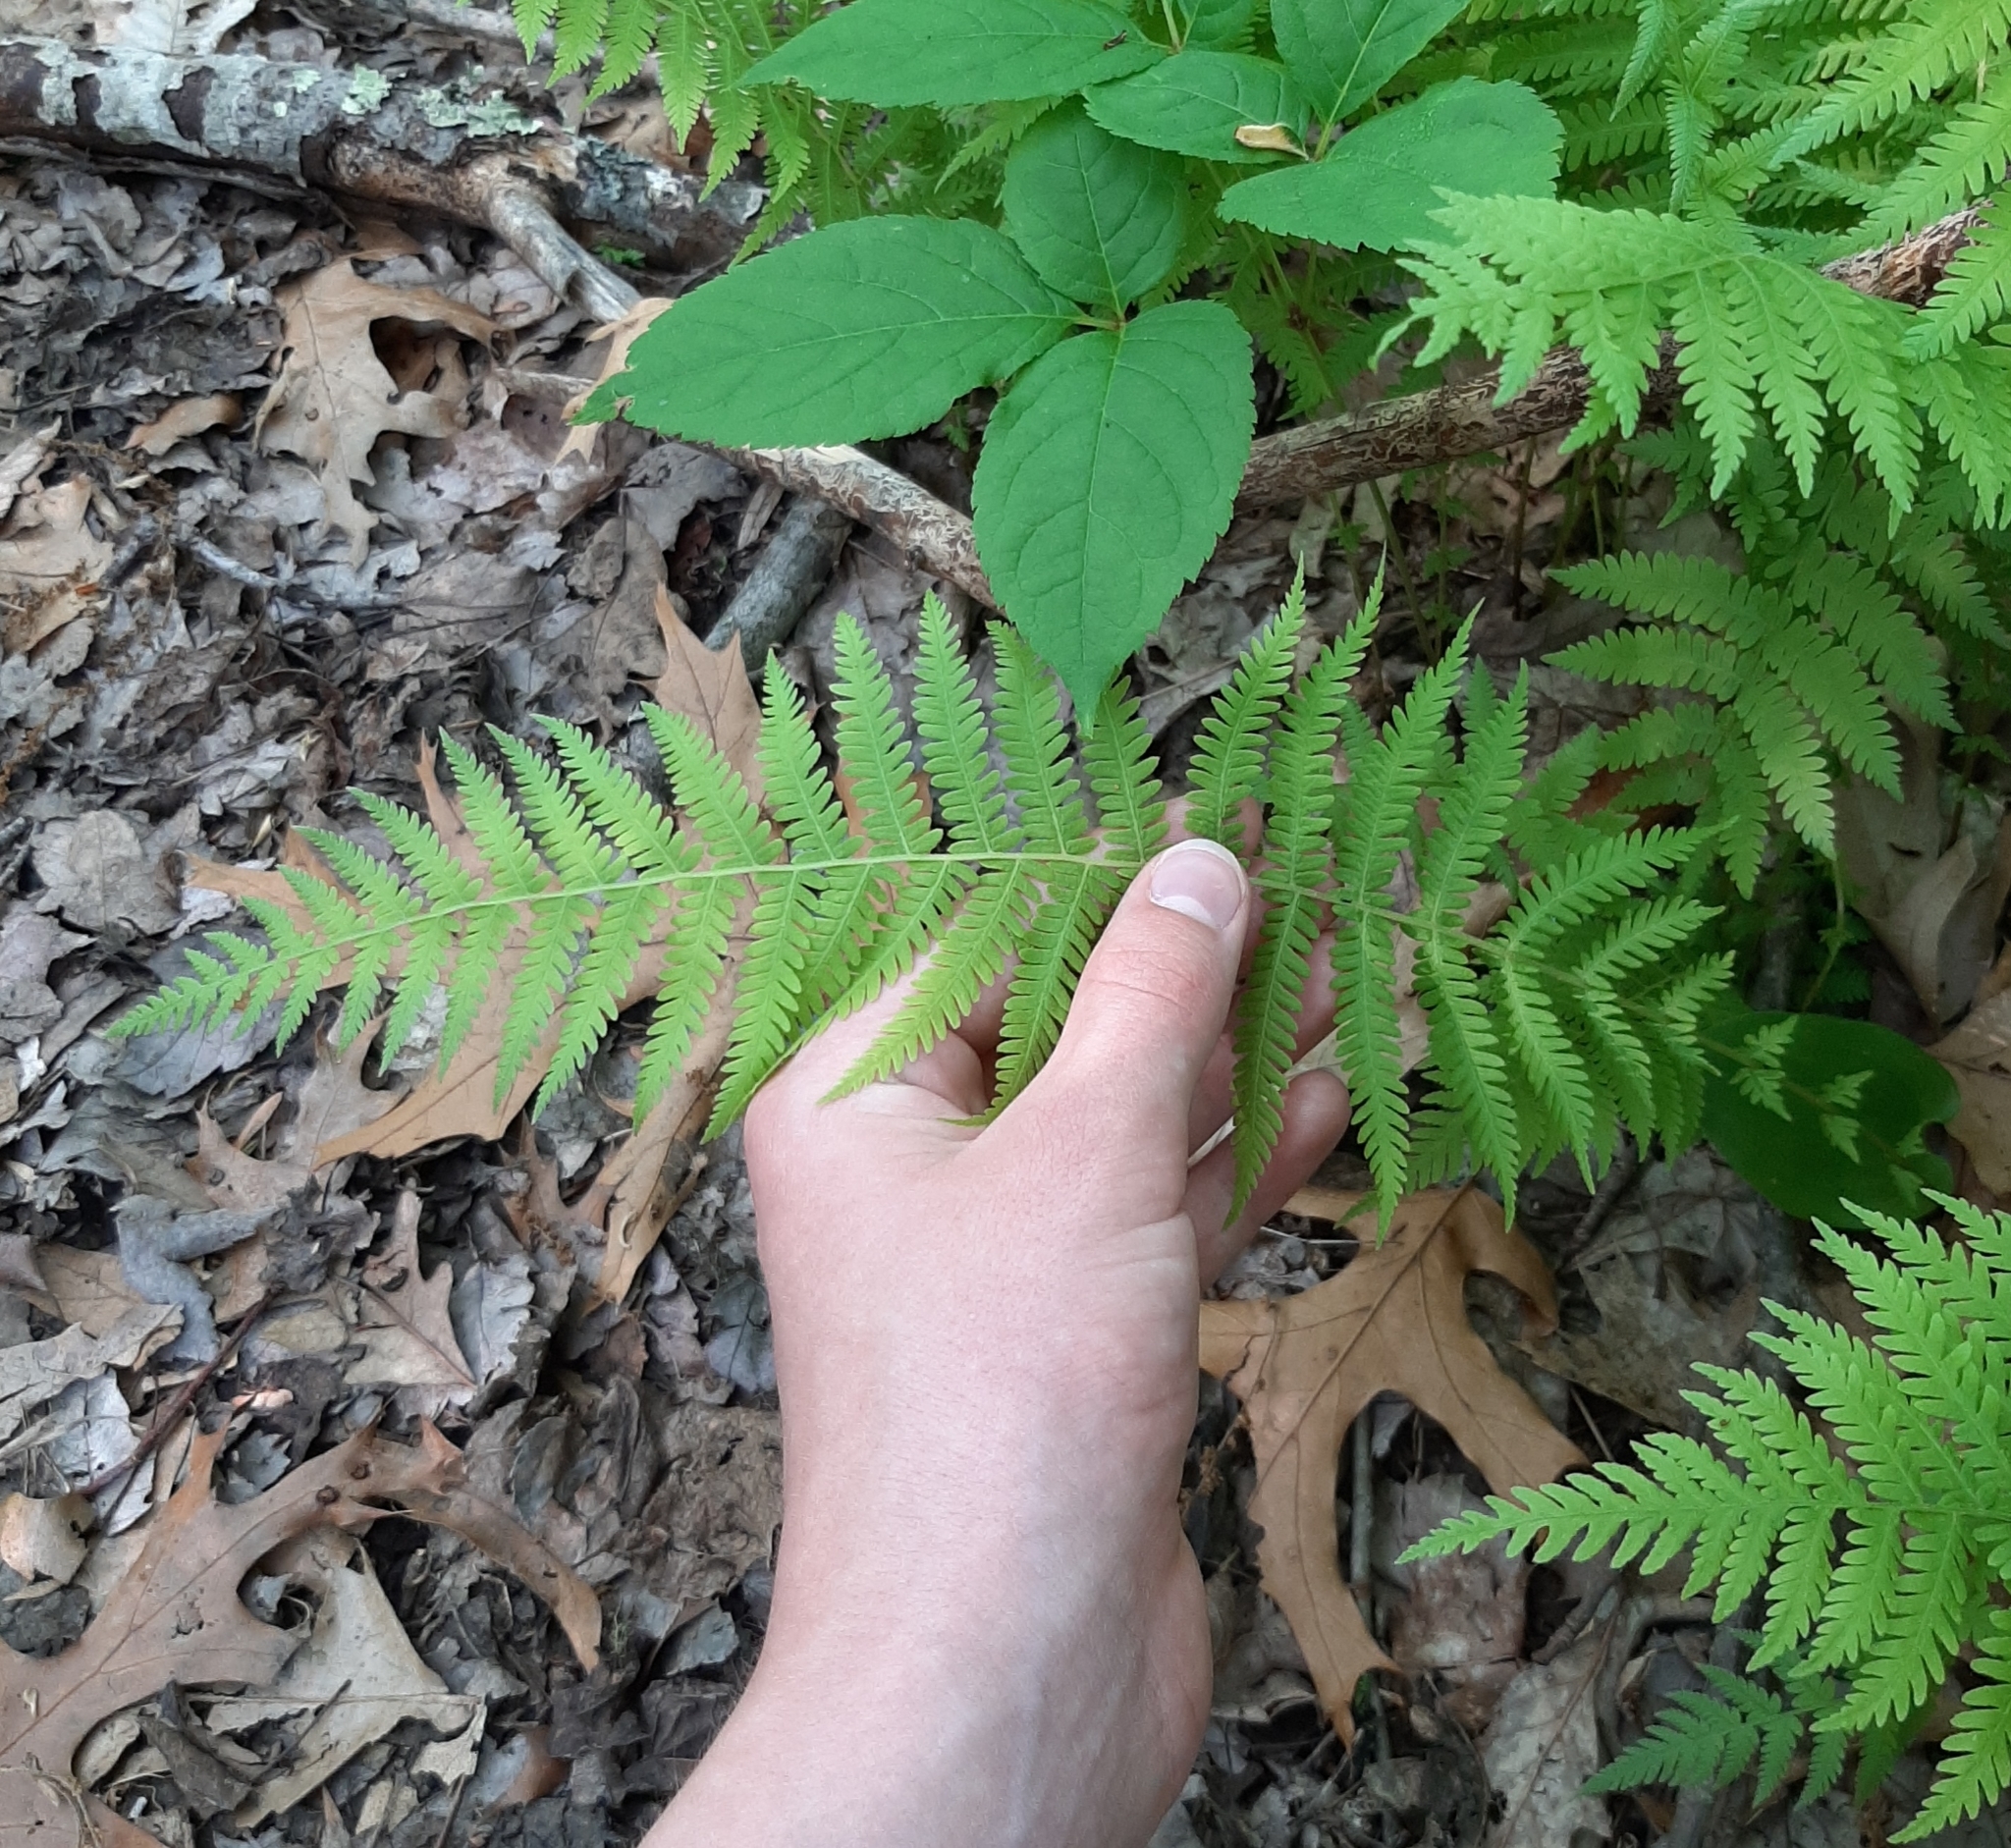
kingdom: Plantae
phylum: Tracheophyta
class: Polypodiopsida
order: Polypodiales
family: Thelypteridaceae
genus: Amauropelta
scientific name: Amauropelta noveboracensis
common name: New york fern
